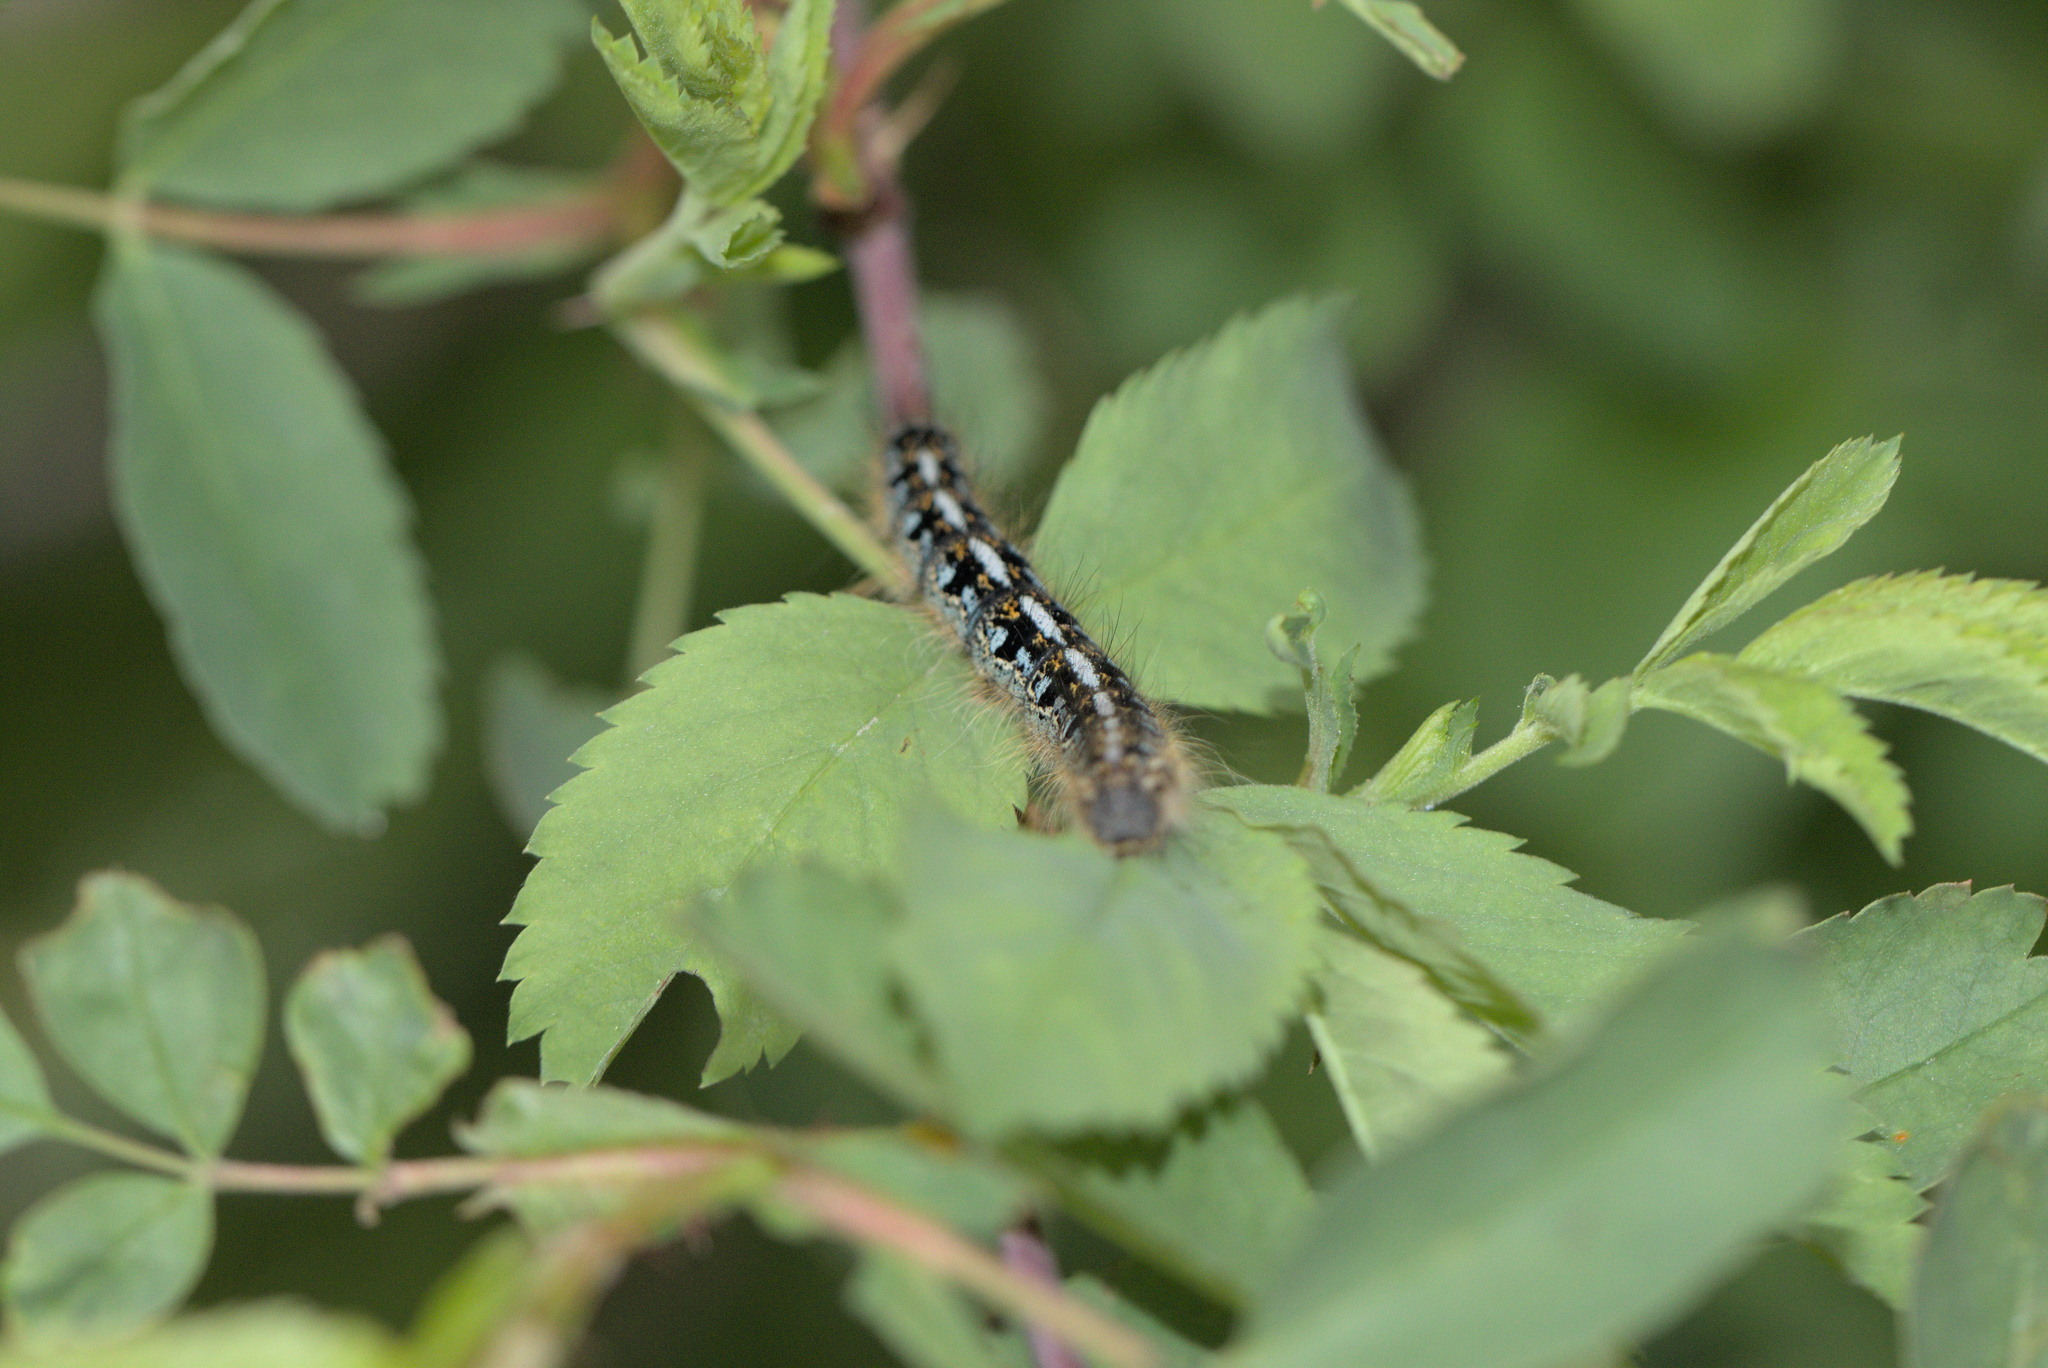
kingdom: Animalia
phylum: Arthropoda
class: Insecta
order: Lepidoptera
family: Lasiocampidae
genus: Malacosoma
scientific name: Malacosoma californica
